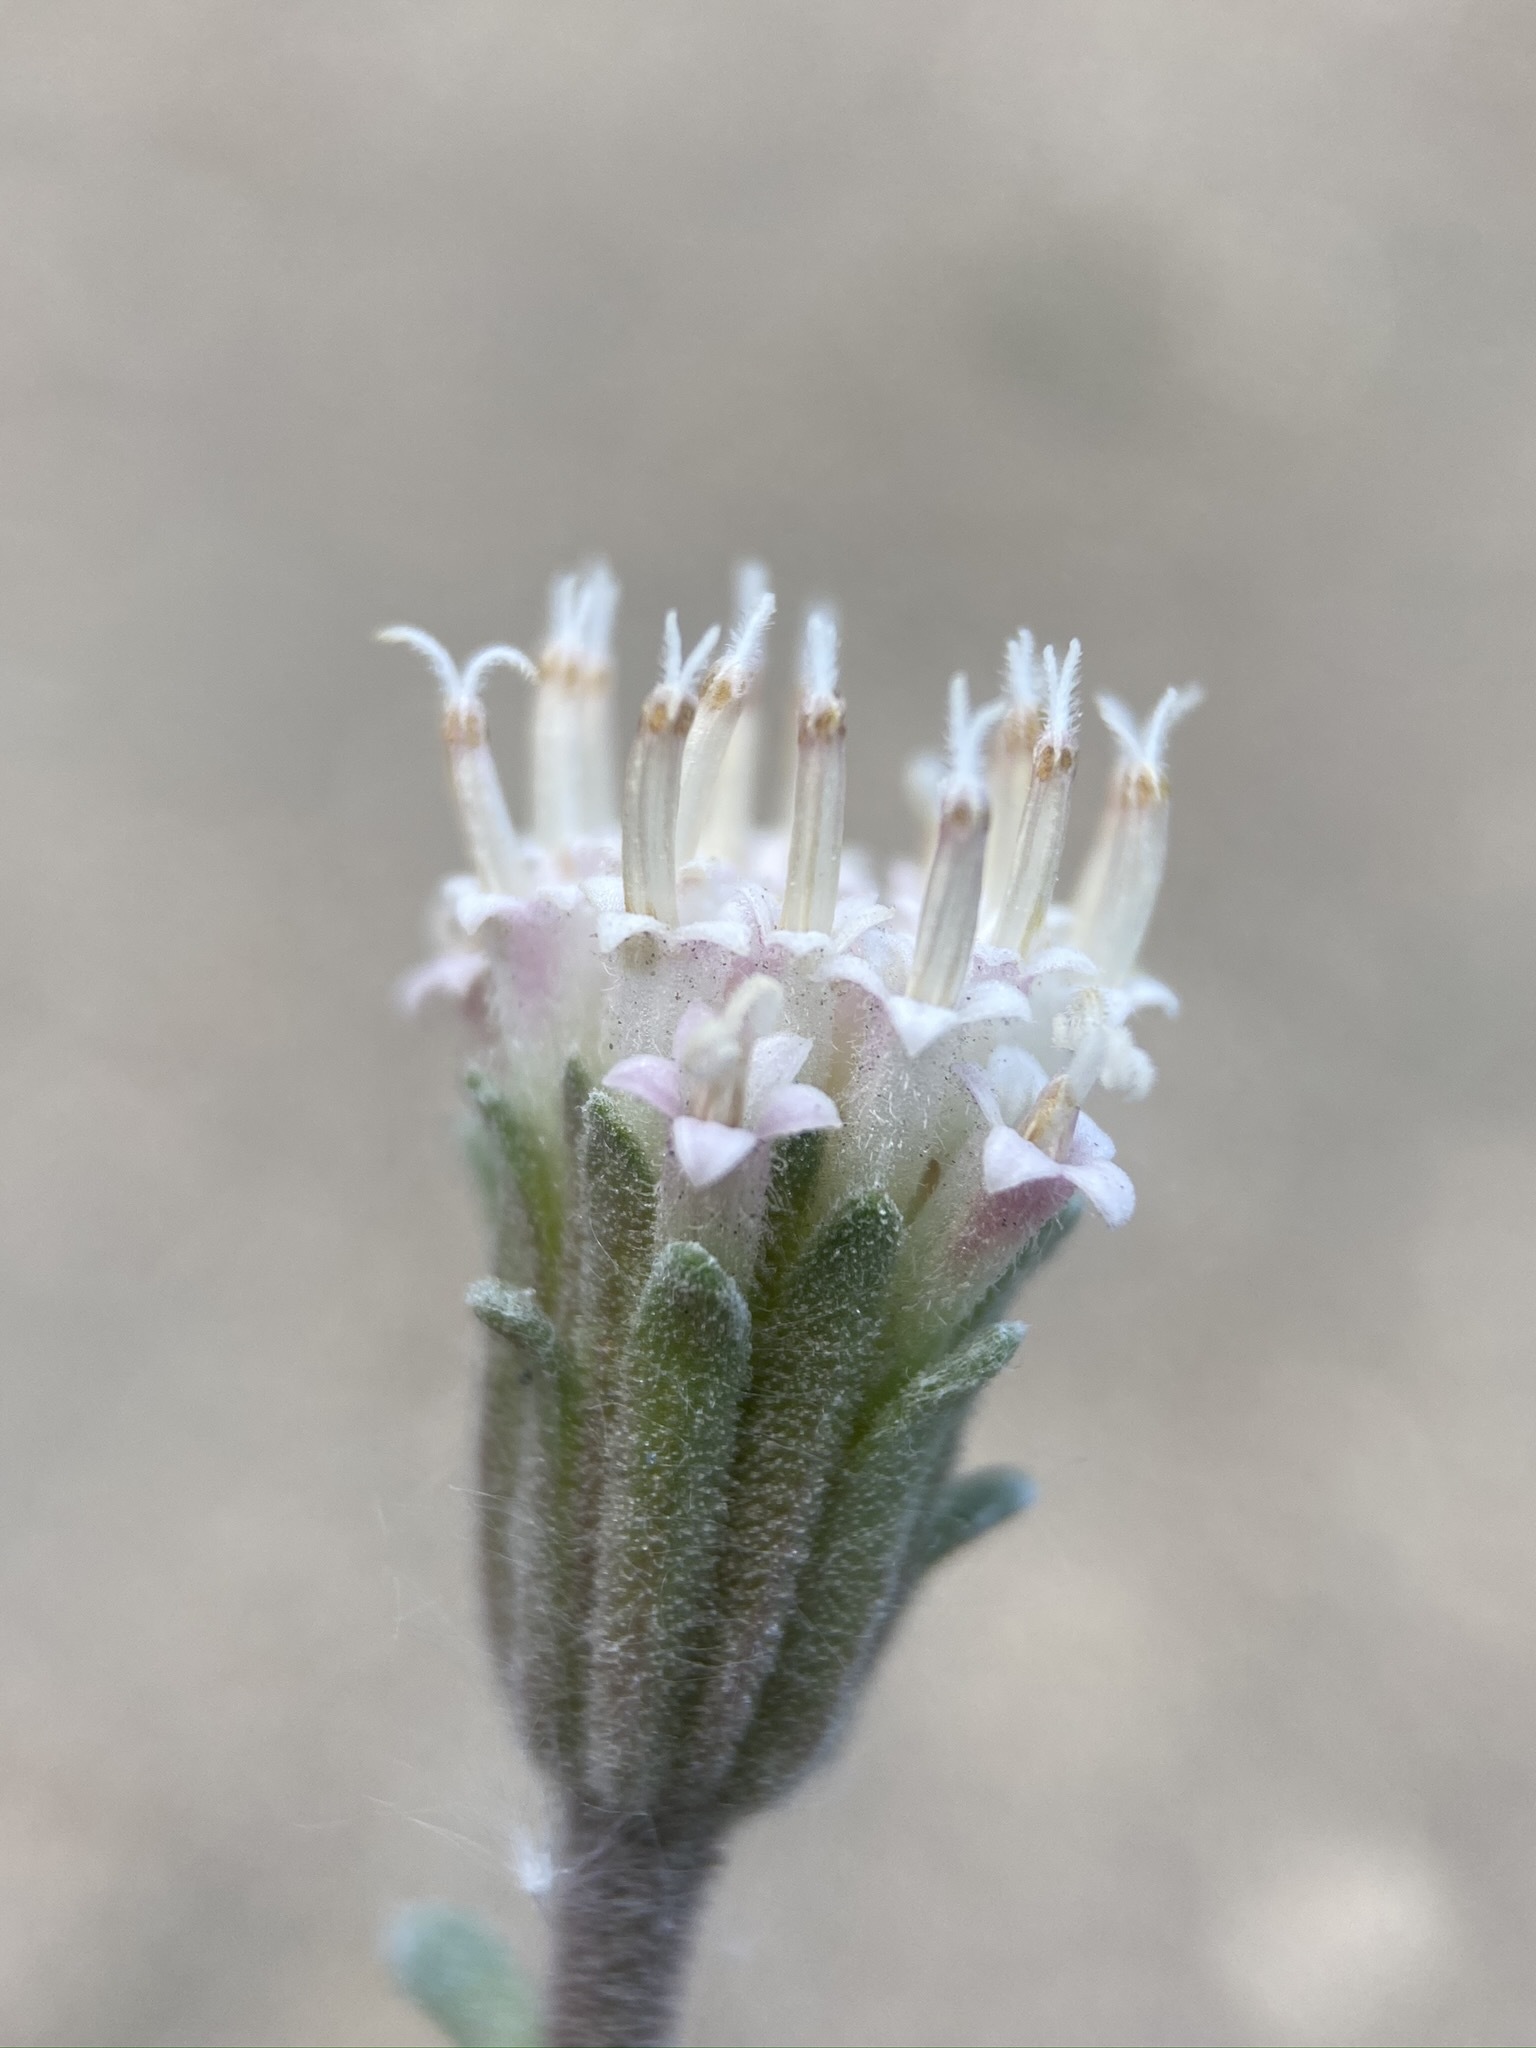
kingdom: Plantae
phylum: Tracheophyta
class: Magnoliopsida
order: Asterales
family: Asteraceae
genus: Chaenactis
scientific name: Chaenactis douglasii
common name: Hoary pincushion
